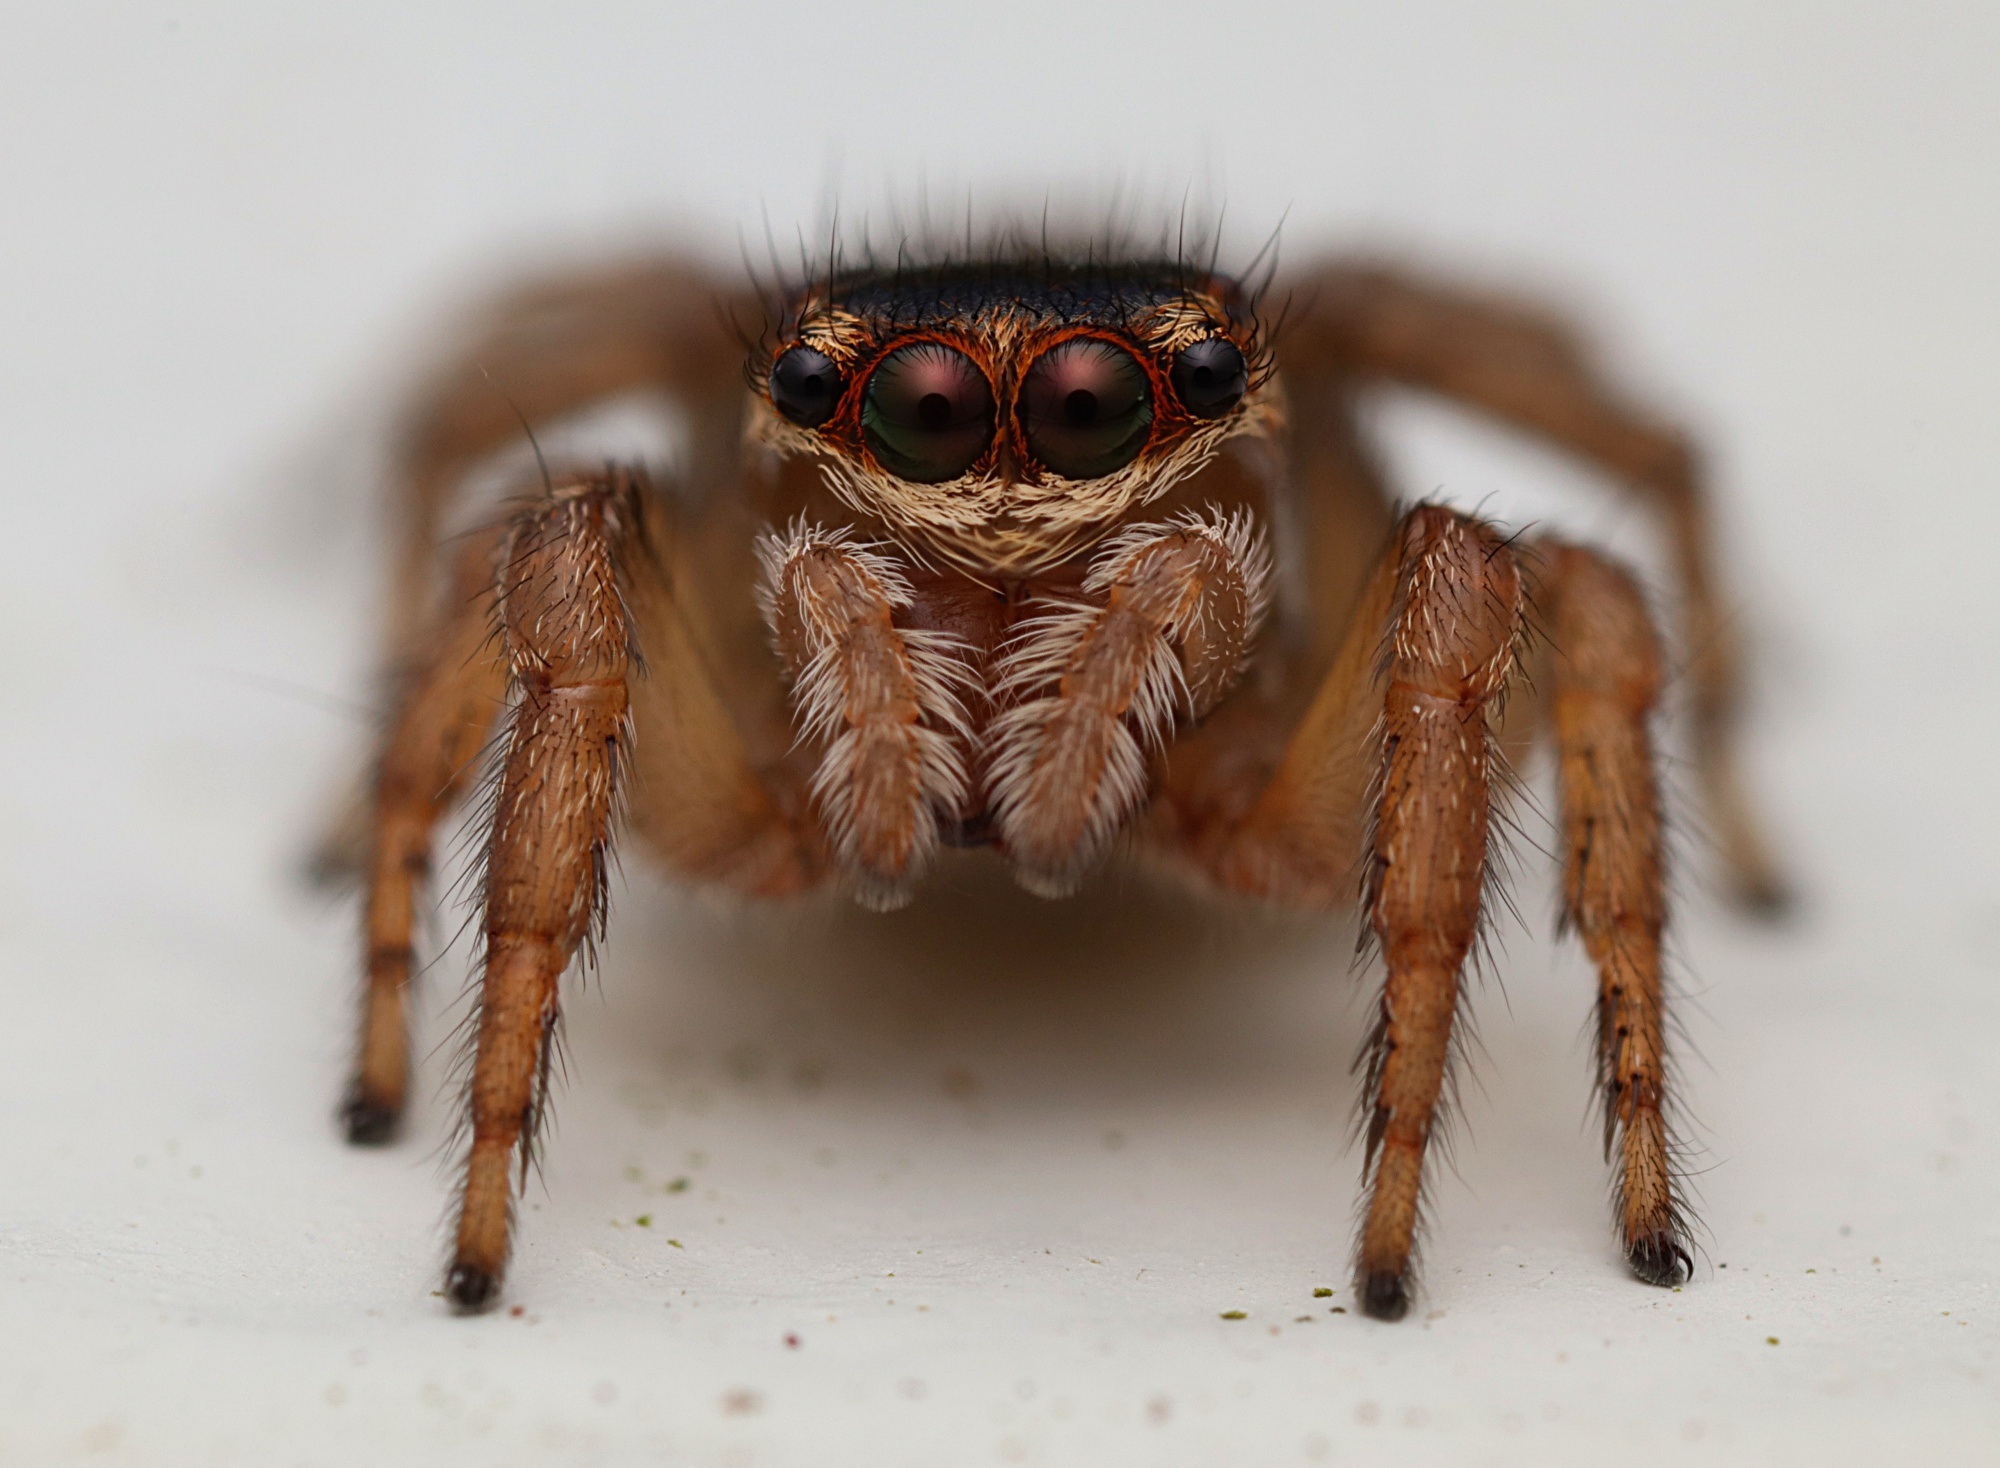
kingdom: Animalia
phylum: Arthropoda
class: Arachnida
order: Araneae
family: Salticidae
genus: Maratus
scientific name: Maratus griseus
